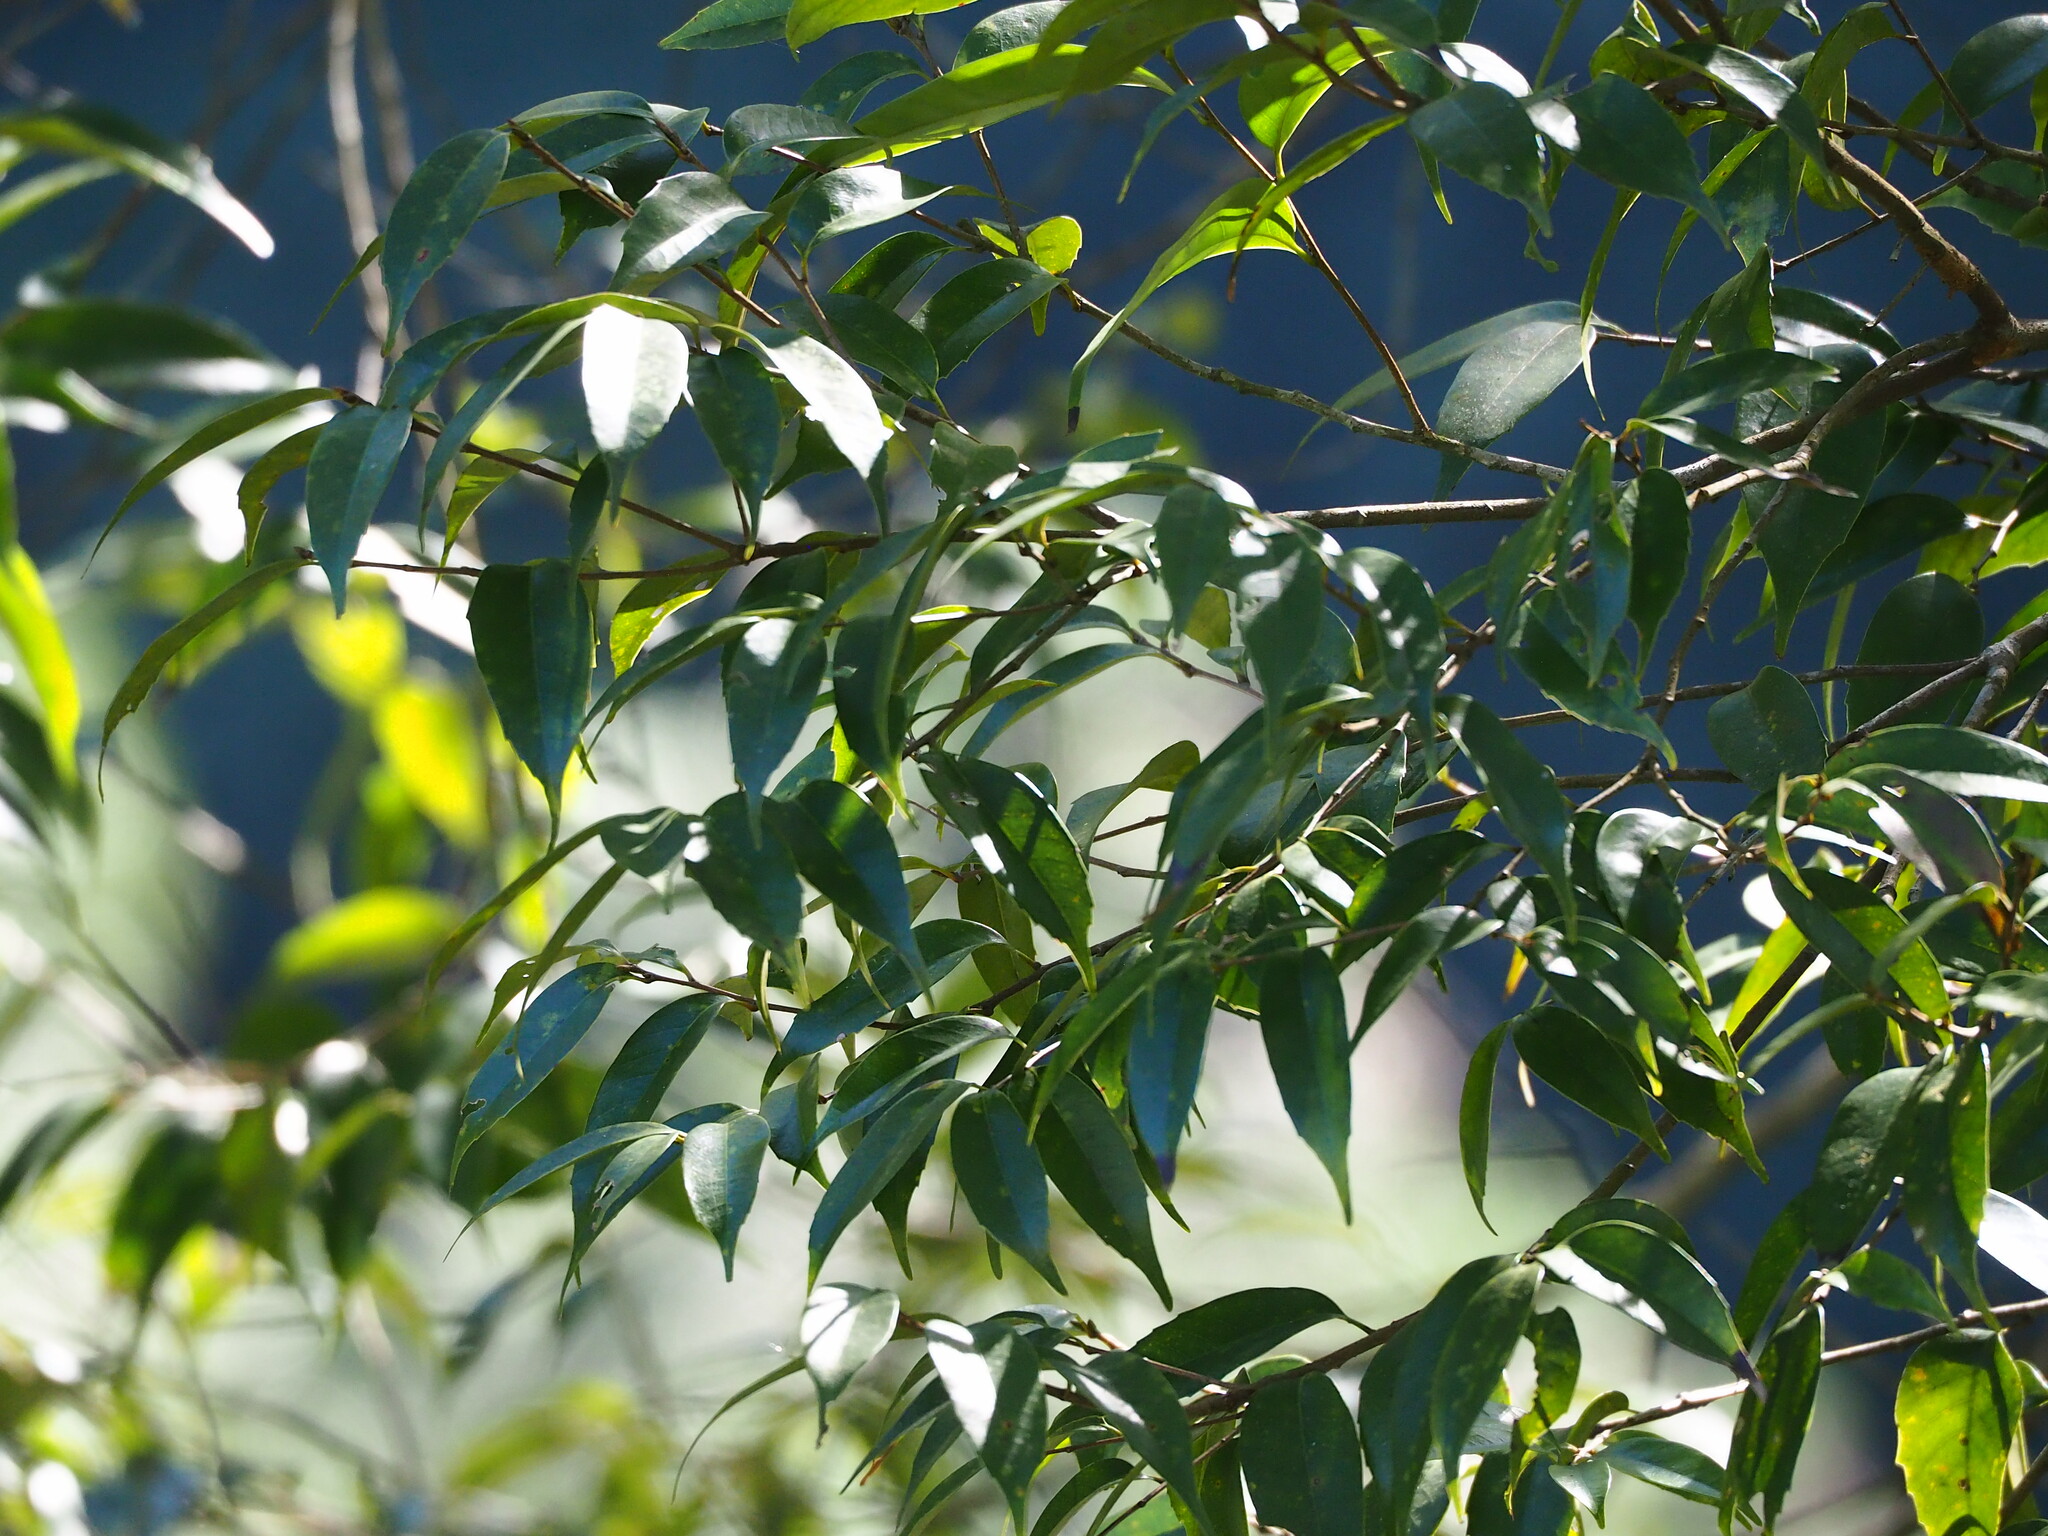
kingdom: Plantae
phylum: Tracheophyta
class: Magnoliopsida
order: Fagales
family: Fagaceae
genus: Lithocarpus
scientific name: Lithocarpus uraianus
